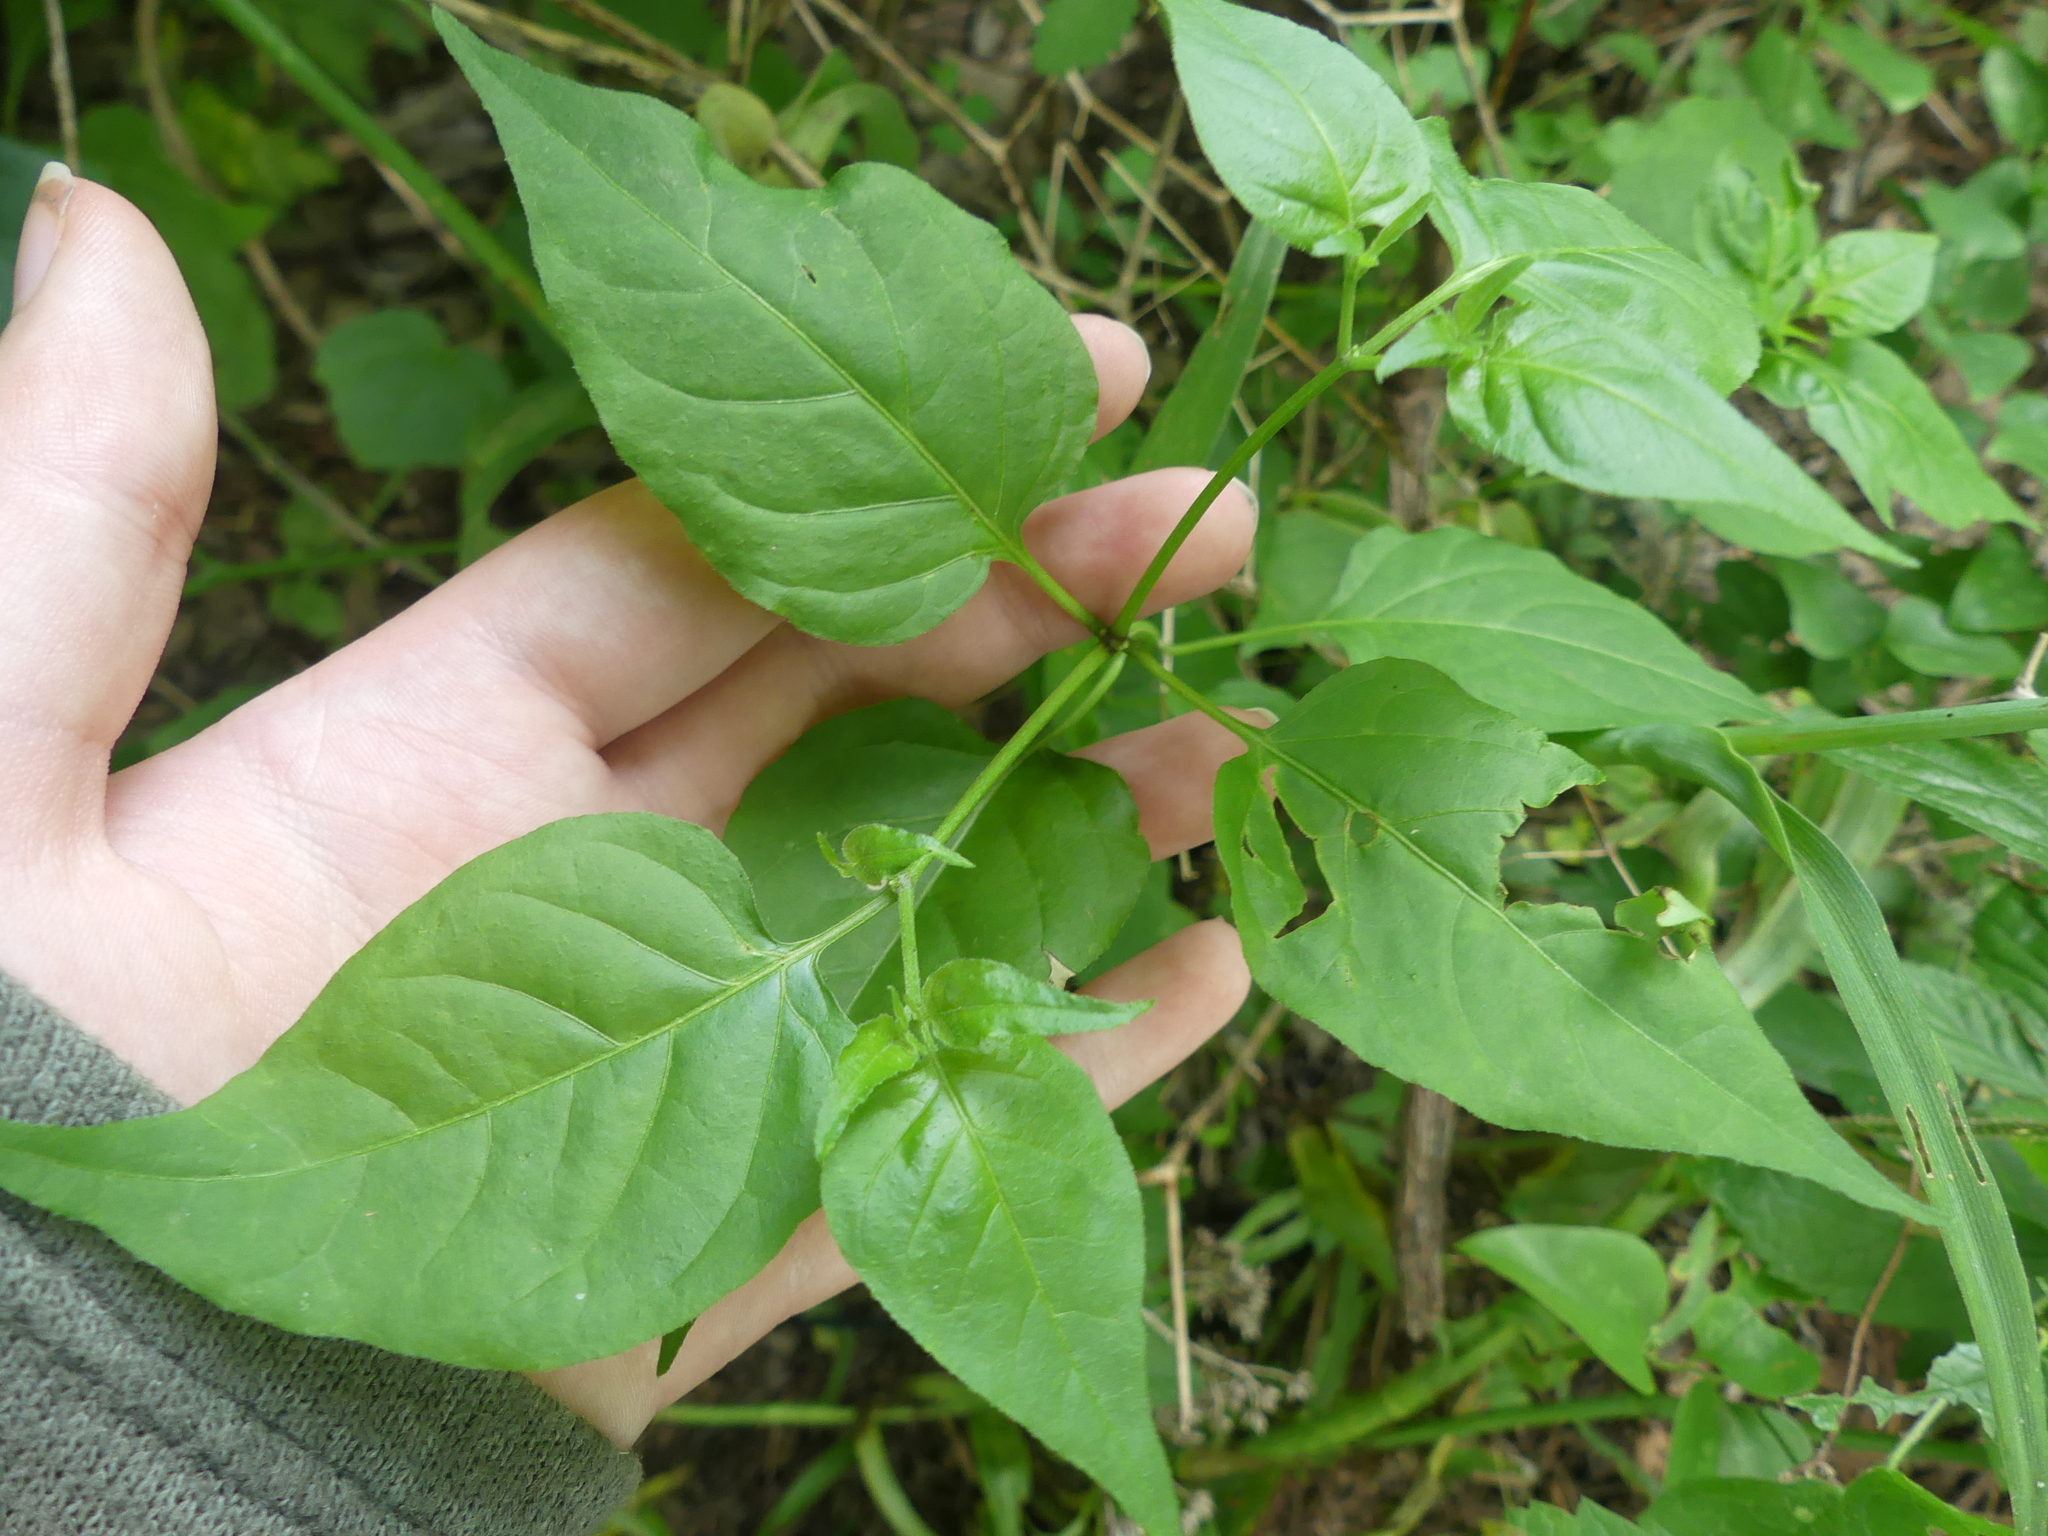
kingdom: Plantae
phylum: Tracheophyta
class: Magnoliopsida
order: Solanales
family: Solanaceae
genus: Capsicum
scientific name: Capsicum annuum
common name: Sweet pepper
